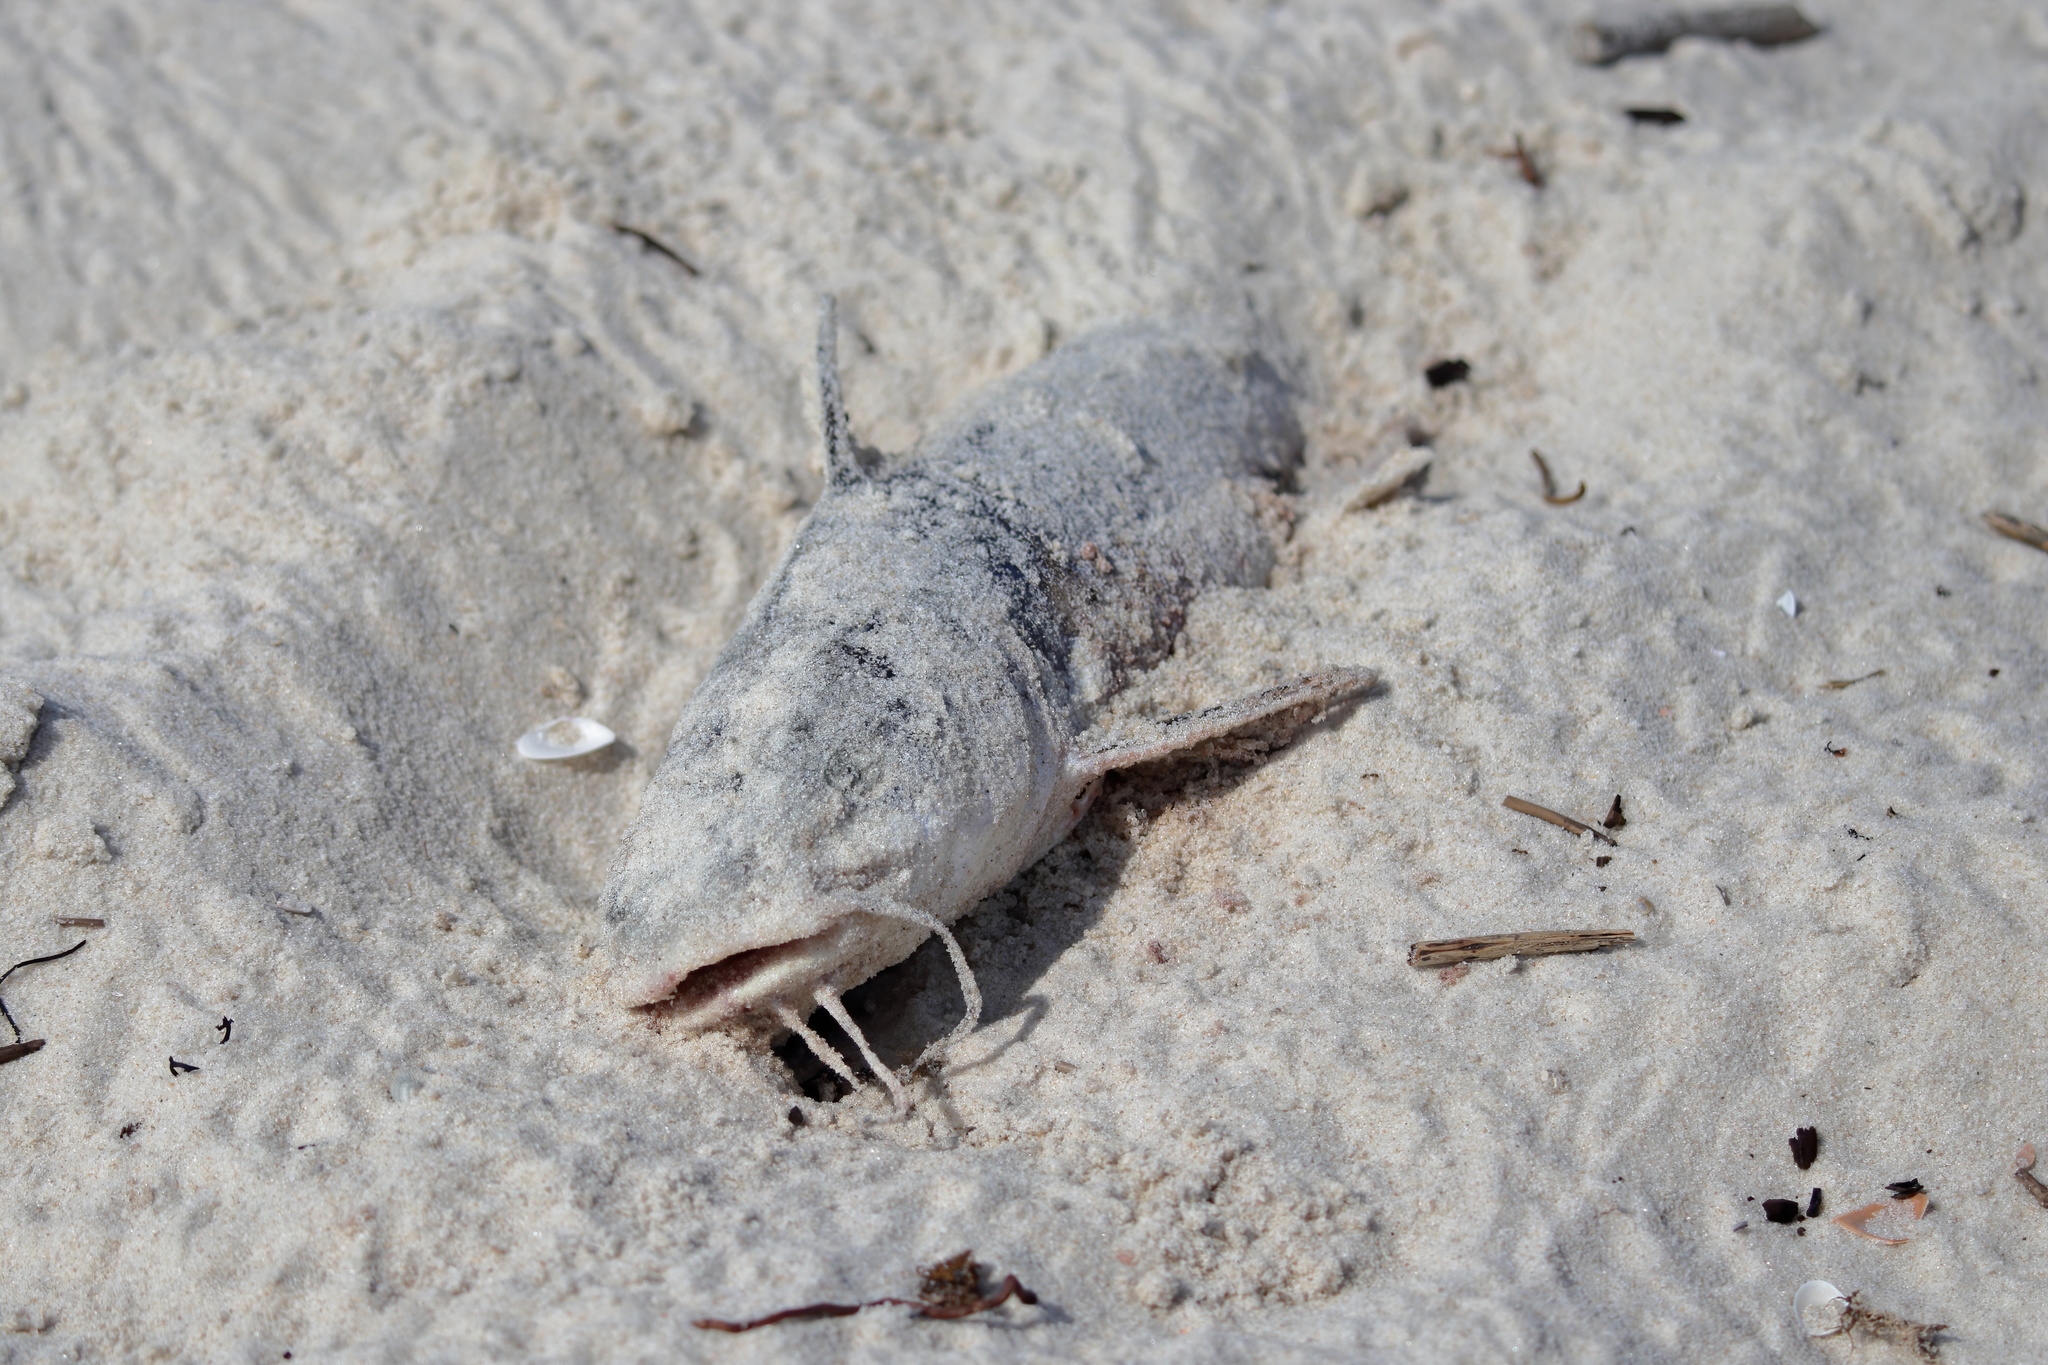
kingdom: Animalia
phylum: Chordata
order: Siluriformes
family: Ariidae
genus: Ariopsis
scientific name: Ariopsis felis
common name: Hardhead catfish
